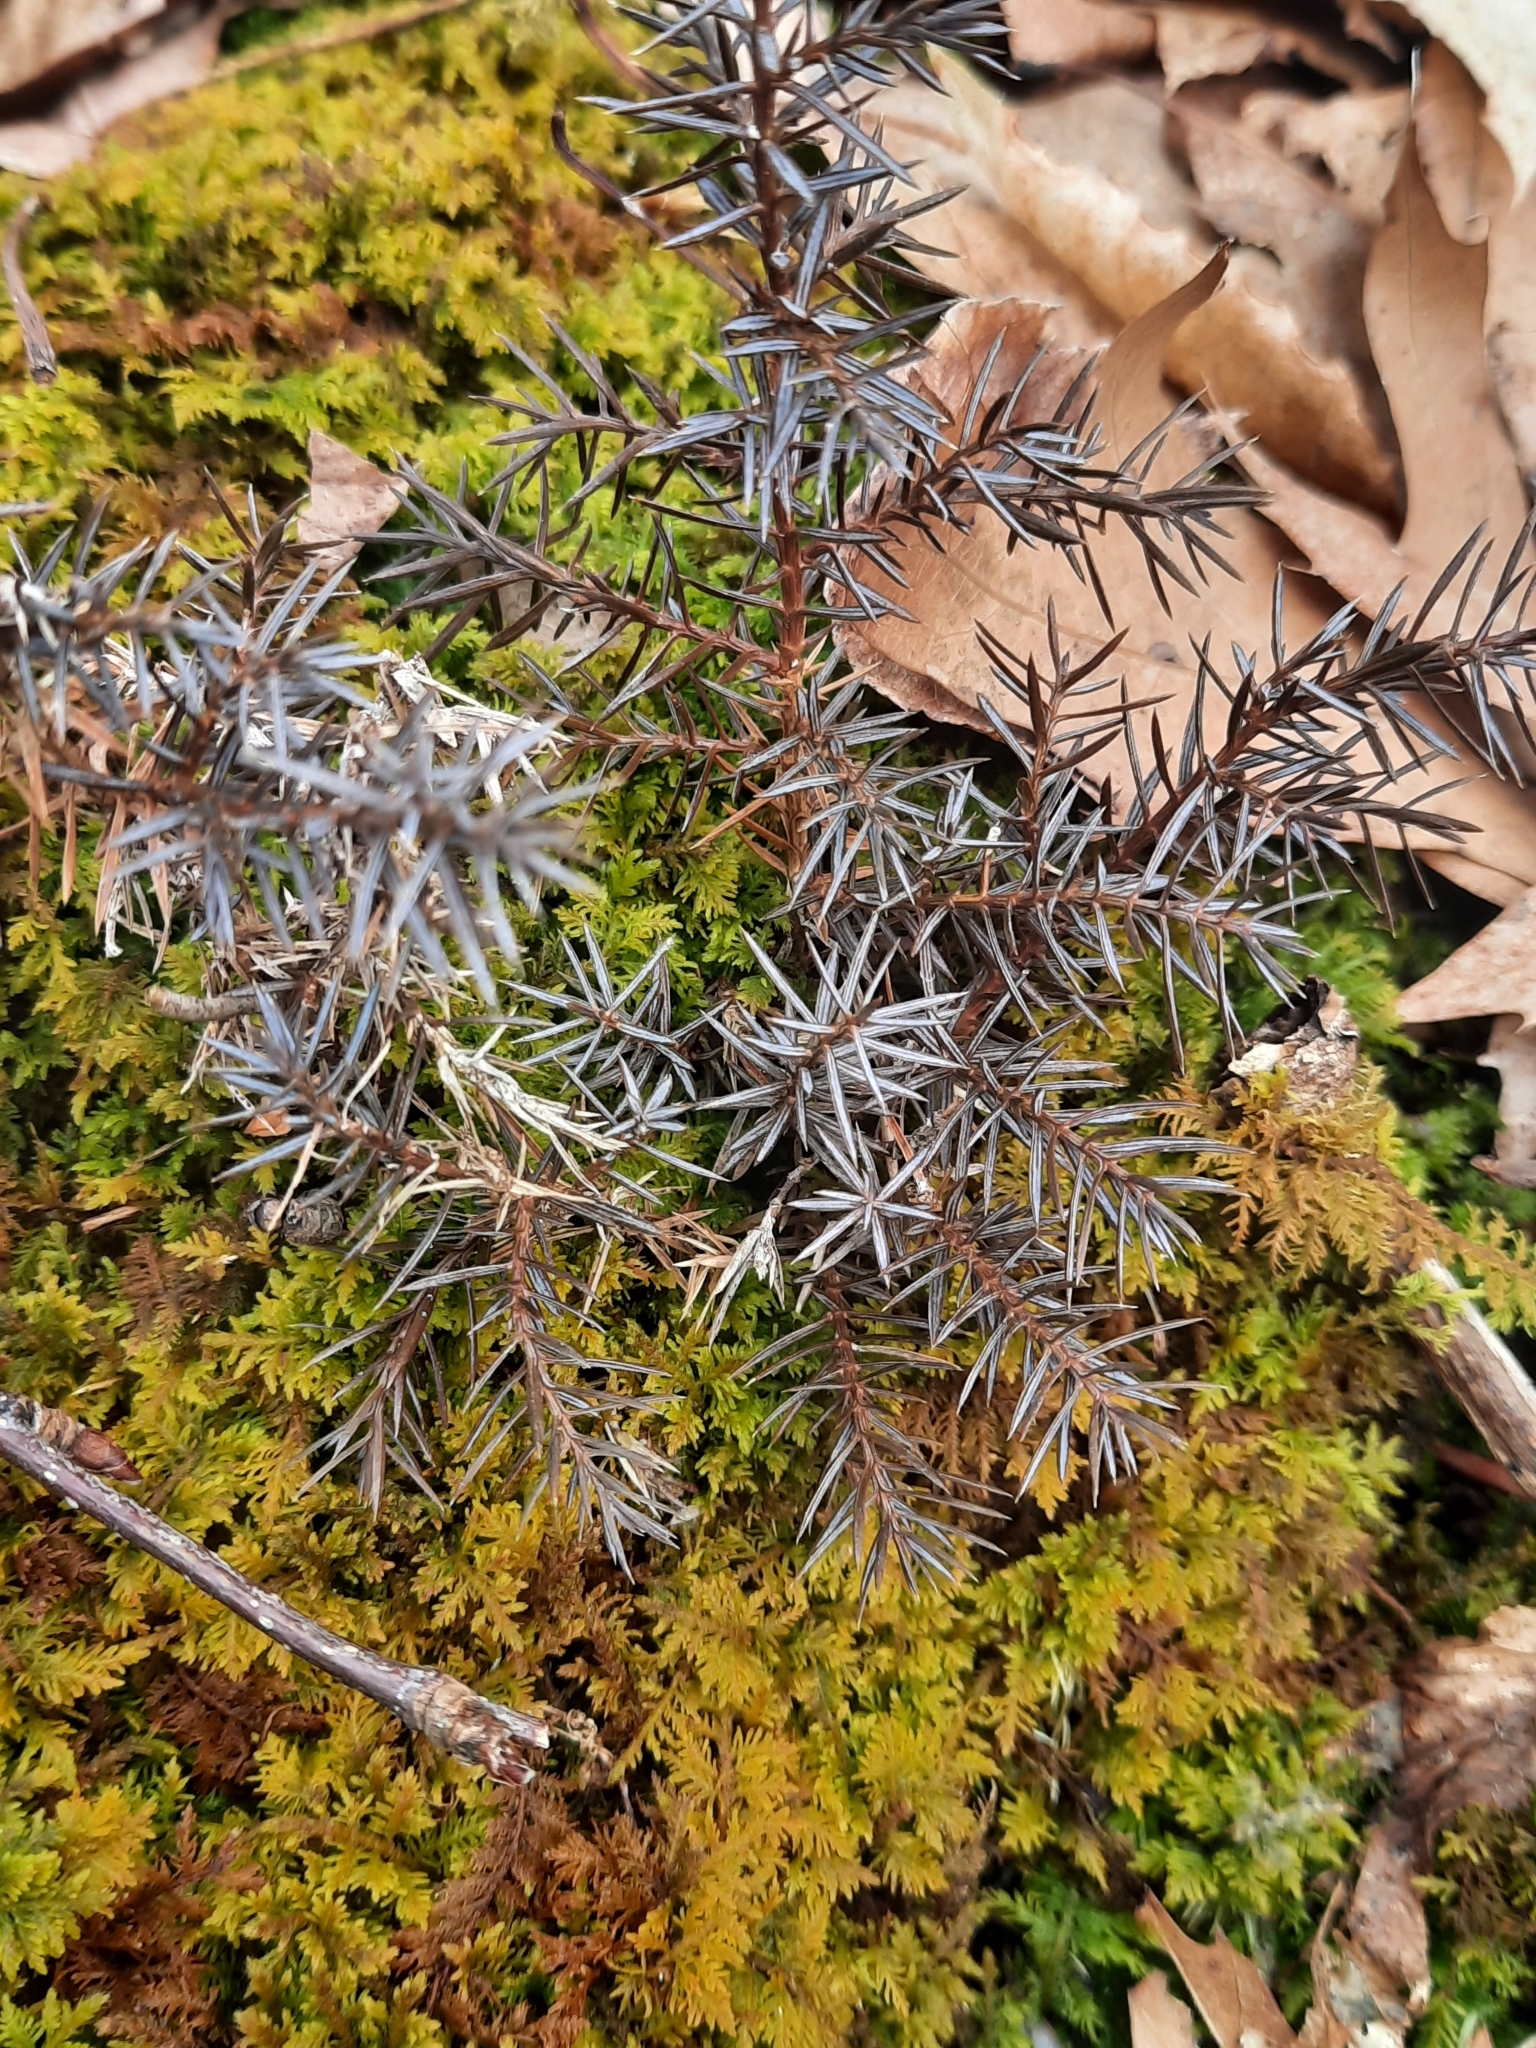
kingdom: Plantae
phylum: Tracheophyta
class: Pinopsida
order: Pinales
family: Cupressaceae
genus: Juniperus
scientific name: Juniperus virginiana
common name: Red juniper
